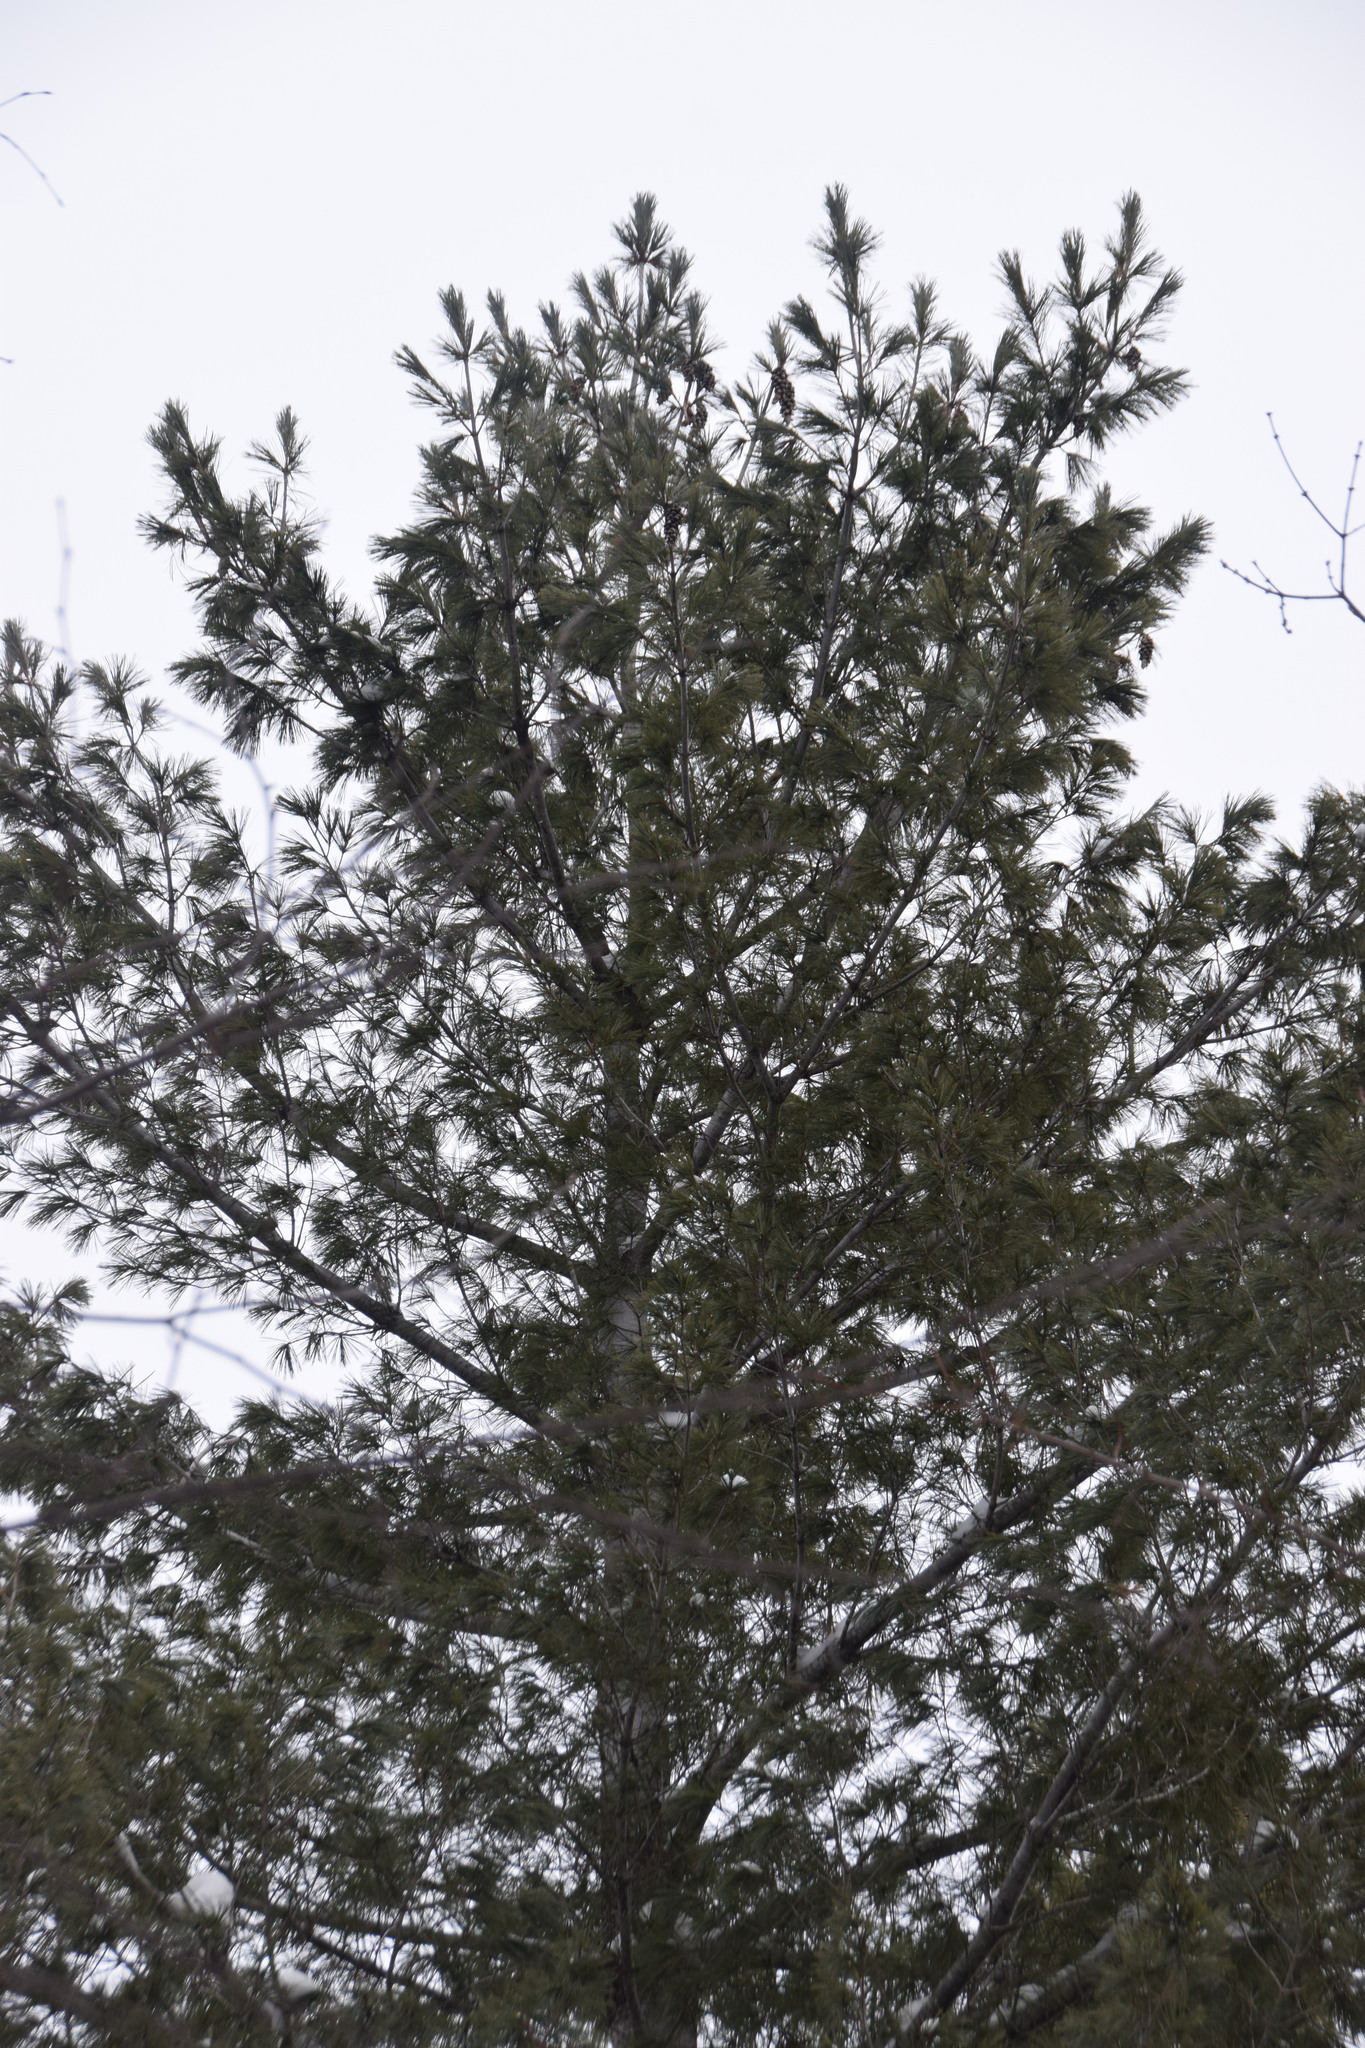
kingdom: Plantae
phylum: Tracheophyta
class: Pinopsida
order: Pinales
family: Pinaceae
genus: Pinus
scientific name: Pinus strobus
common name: Weymouth pine
